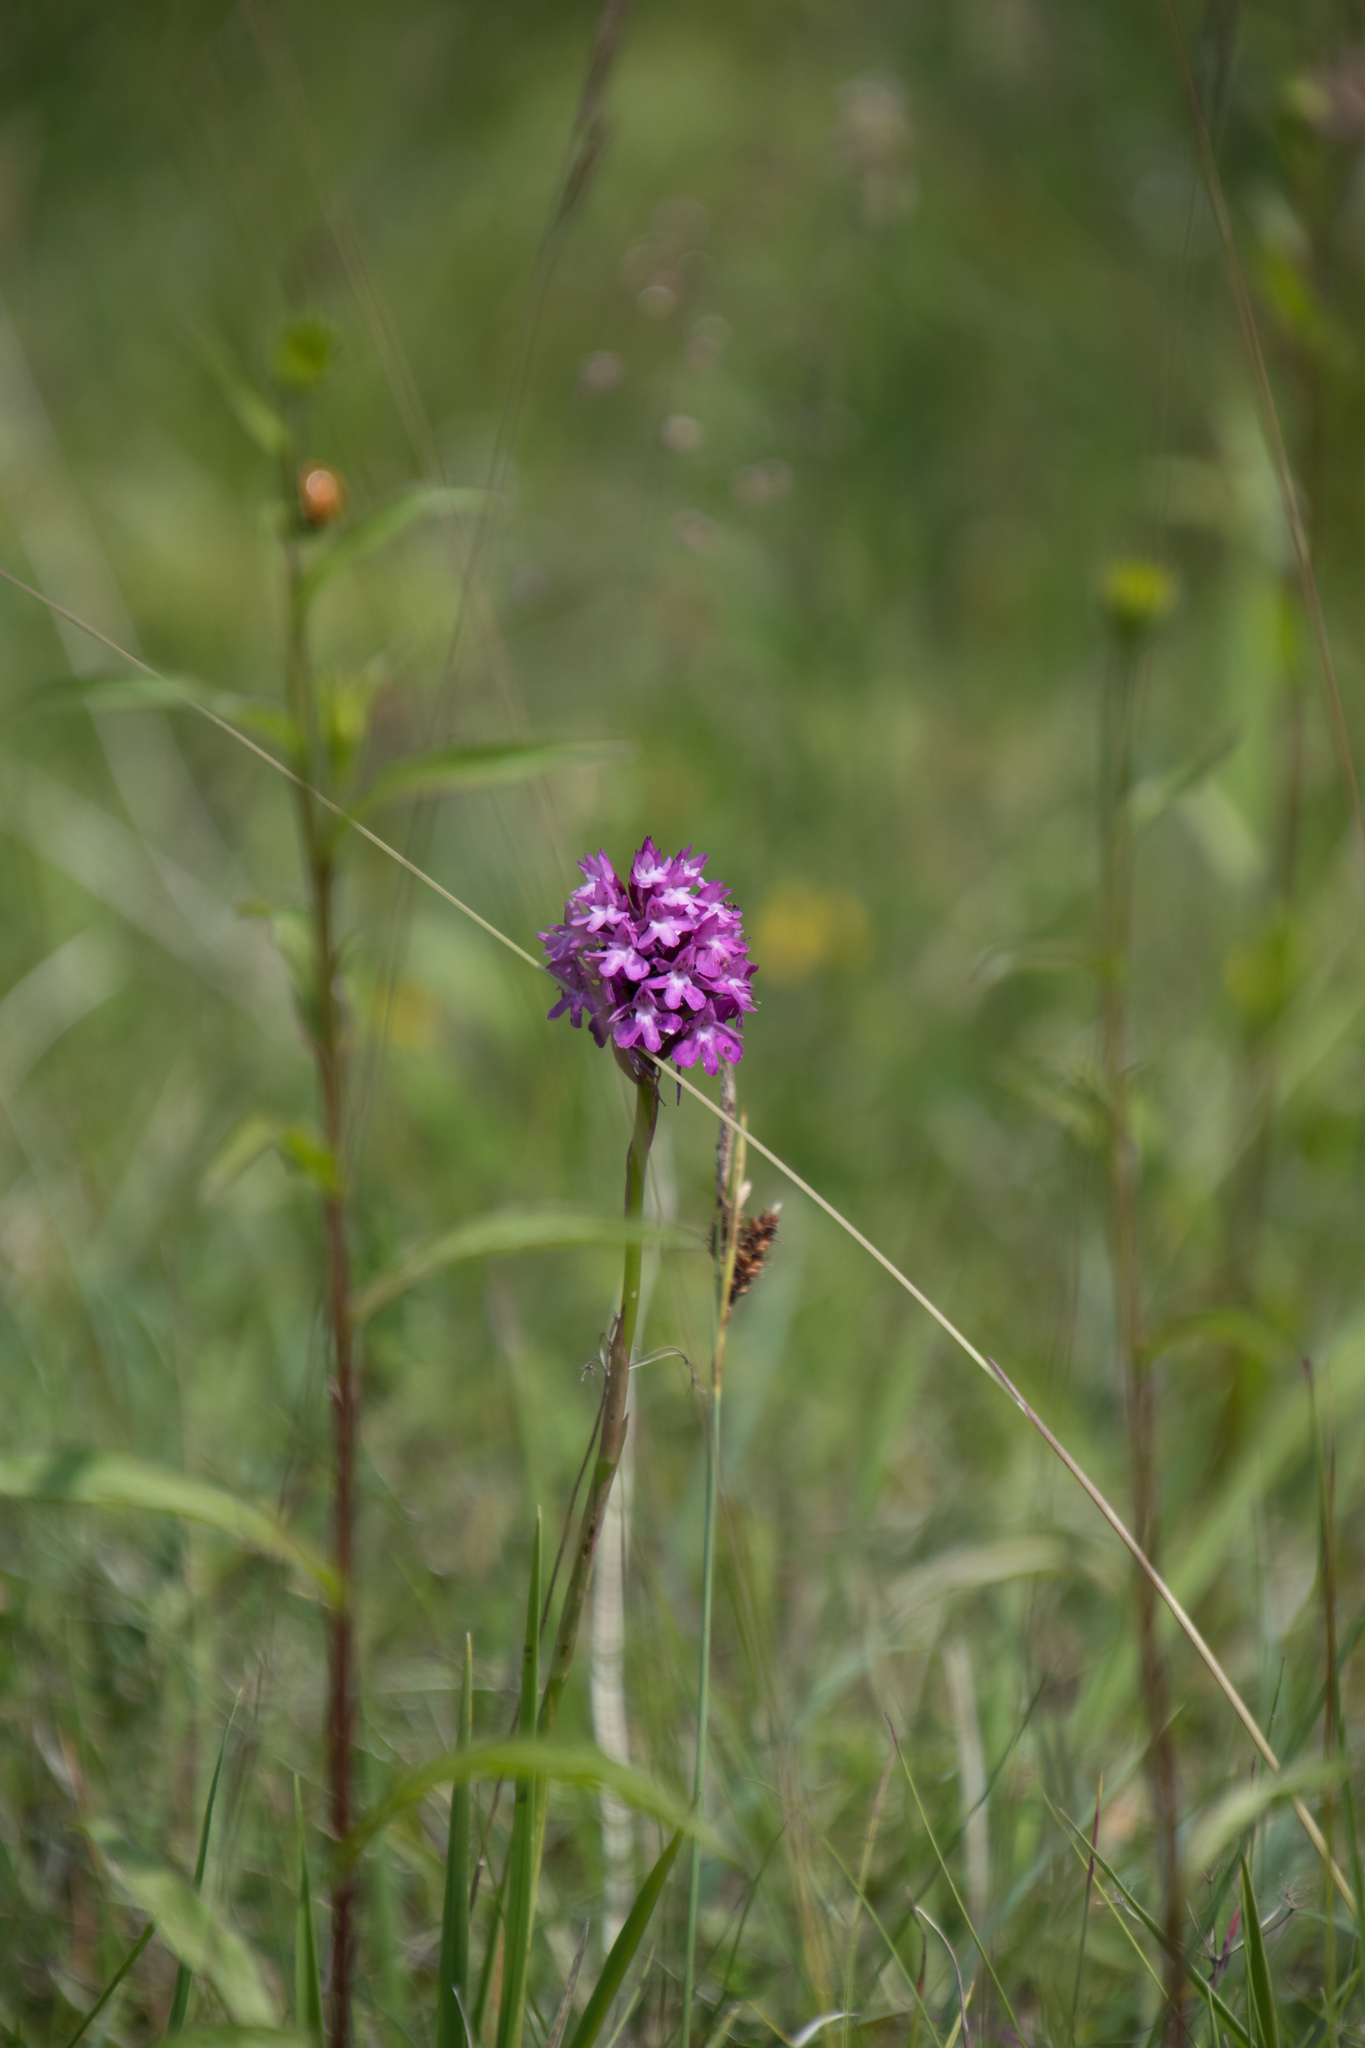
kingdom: Plantae
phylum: Tracheophyta
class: Liliopsida
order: Asparagales
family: Orchidaceae
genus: Anacamptis
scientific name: Anacamptis pyramidalis
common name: Pyramidal orchid
